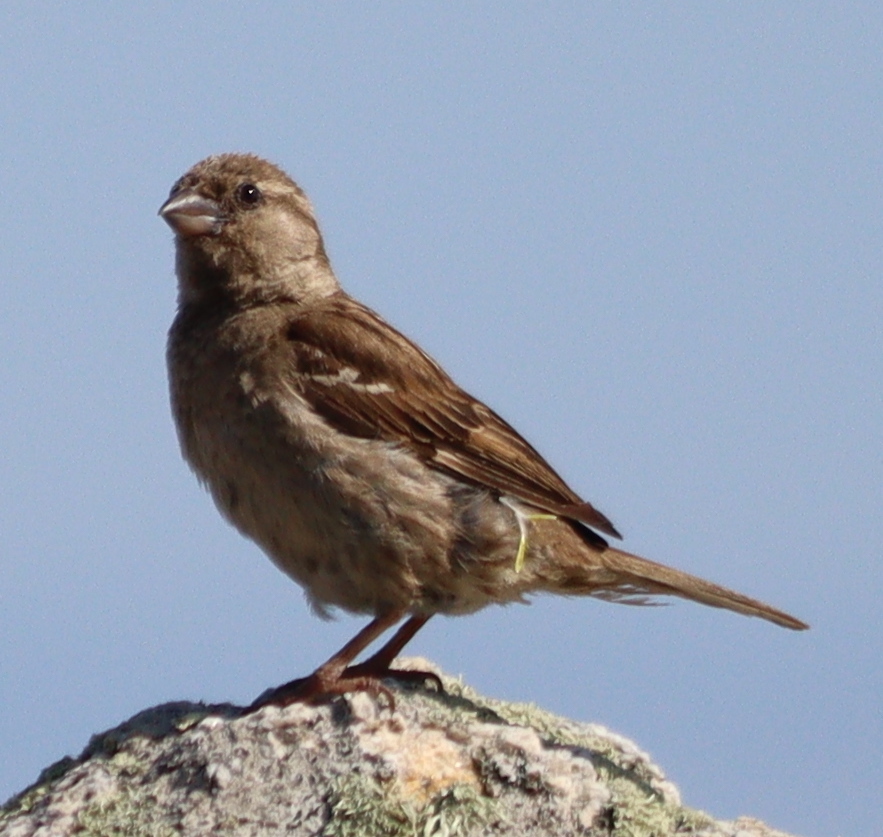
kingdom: Animalia
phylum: Chordata
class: Aves
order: Passeriformes
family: Passeridae
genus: Passer
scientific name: Passer domesticus
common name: House sparrow
